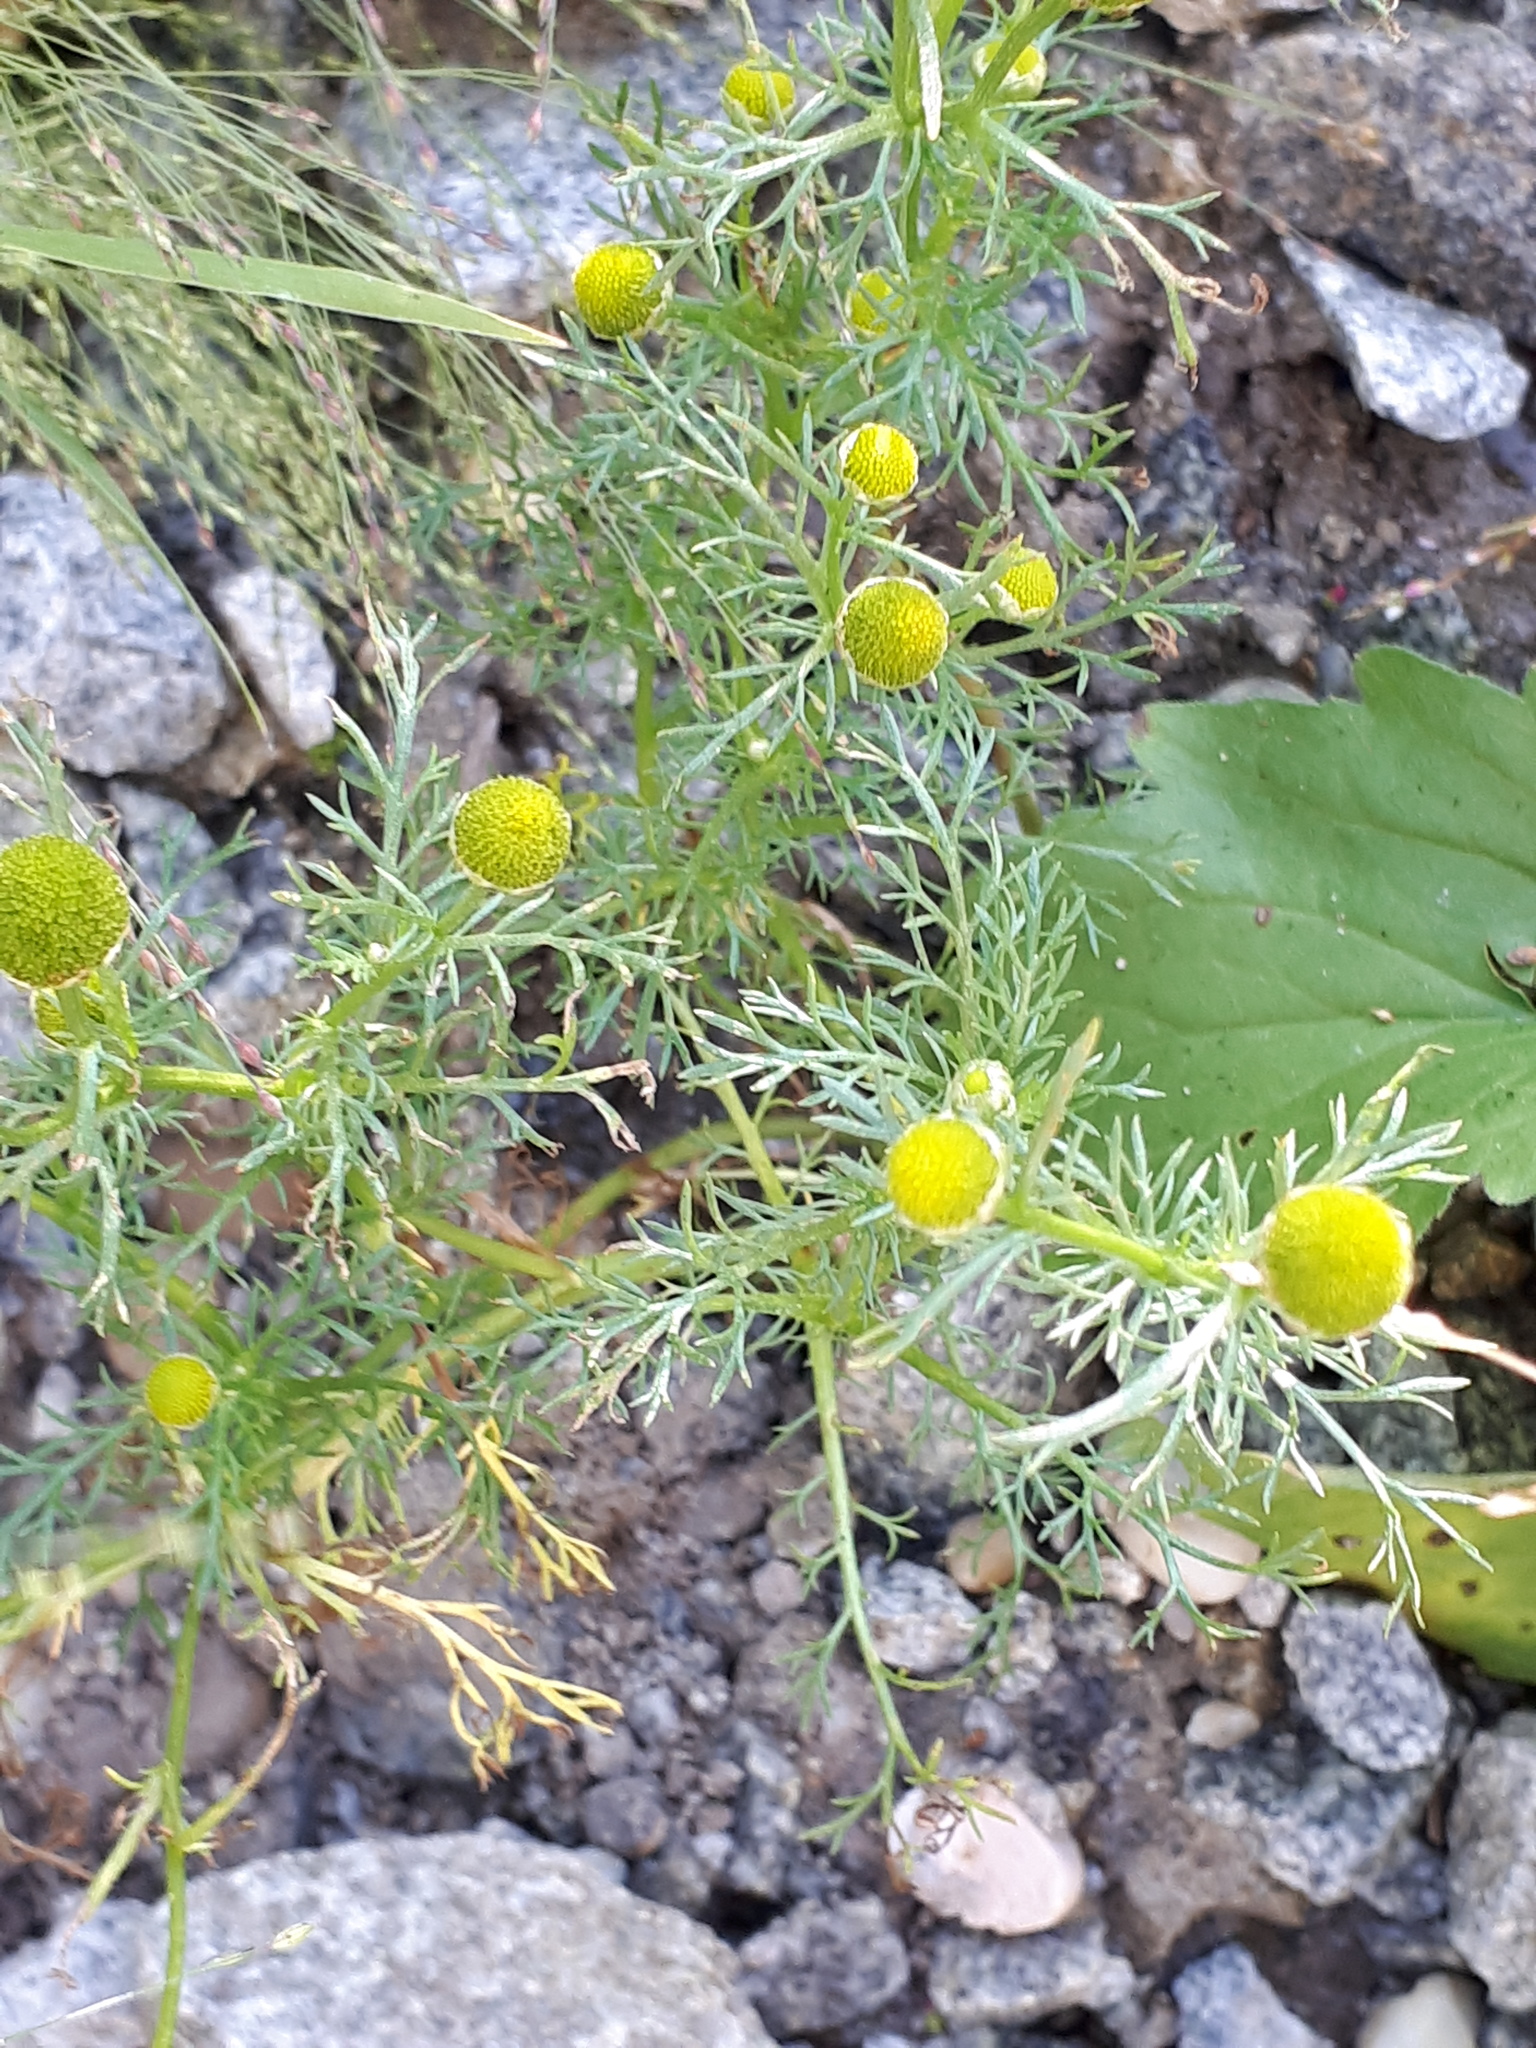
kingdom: Plantae
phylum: Tracheophyta
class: Magnoliopsida
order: Asterales
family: Asteraceae
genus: Matricaria
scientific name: Matricaria discoidea
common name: Disc mayweed
